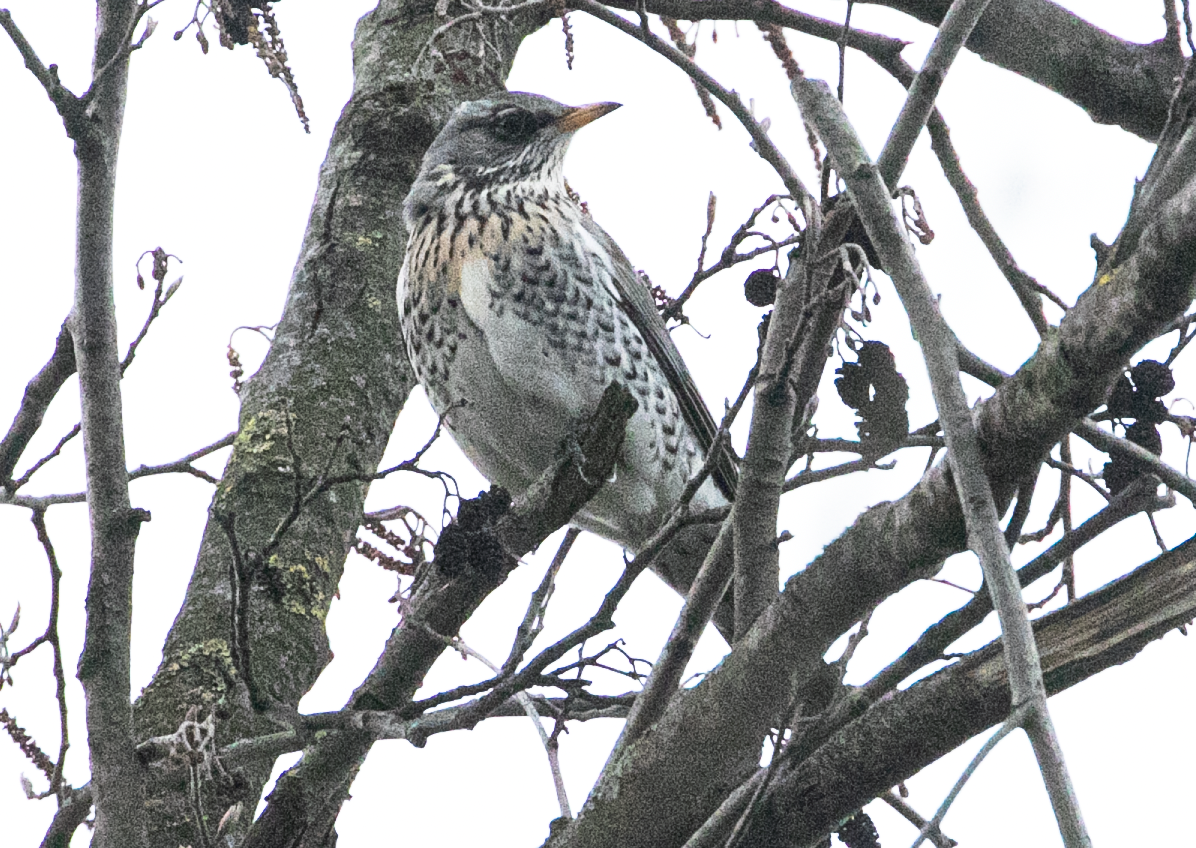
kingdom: Animalia
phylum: Chordata
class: Aves
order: Passeriformes
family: Turdidae
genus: Turdus
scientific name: Turdus pilaris
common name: Fieldfare
